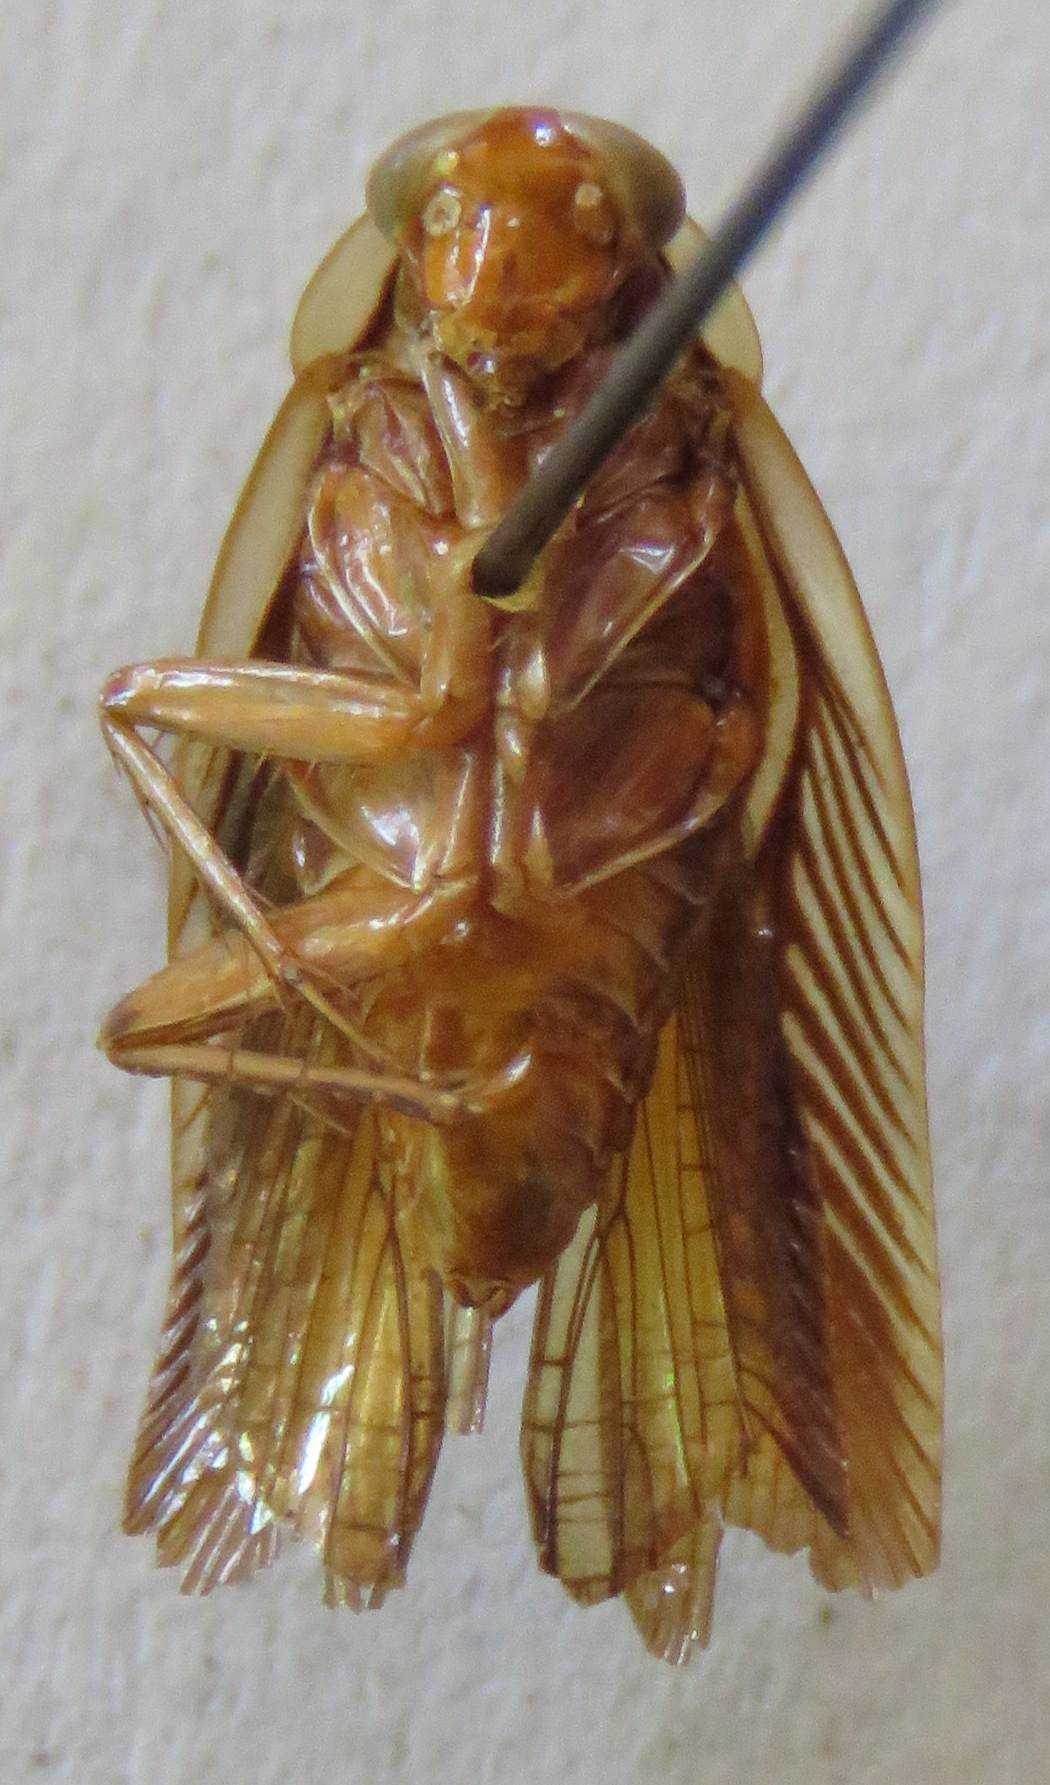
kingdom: Animalia
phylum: Arthropoda
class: Insecta
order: Blattodea
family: Ectobiidae
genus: Euphyllodromia
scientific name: Euphyllodromia angustata
